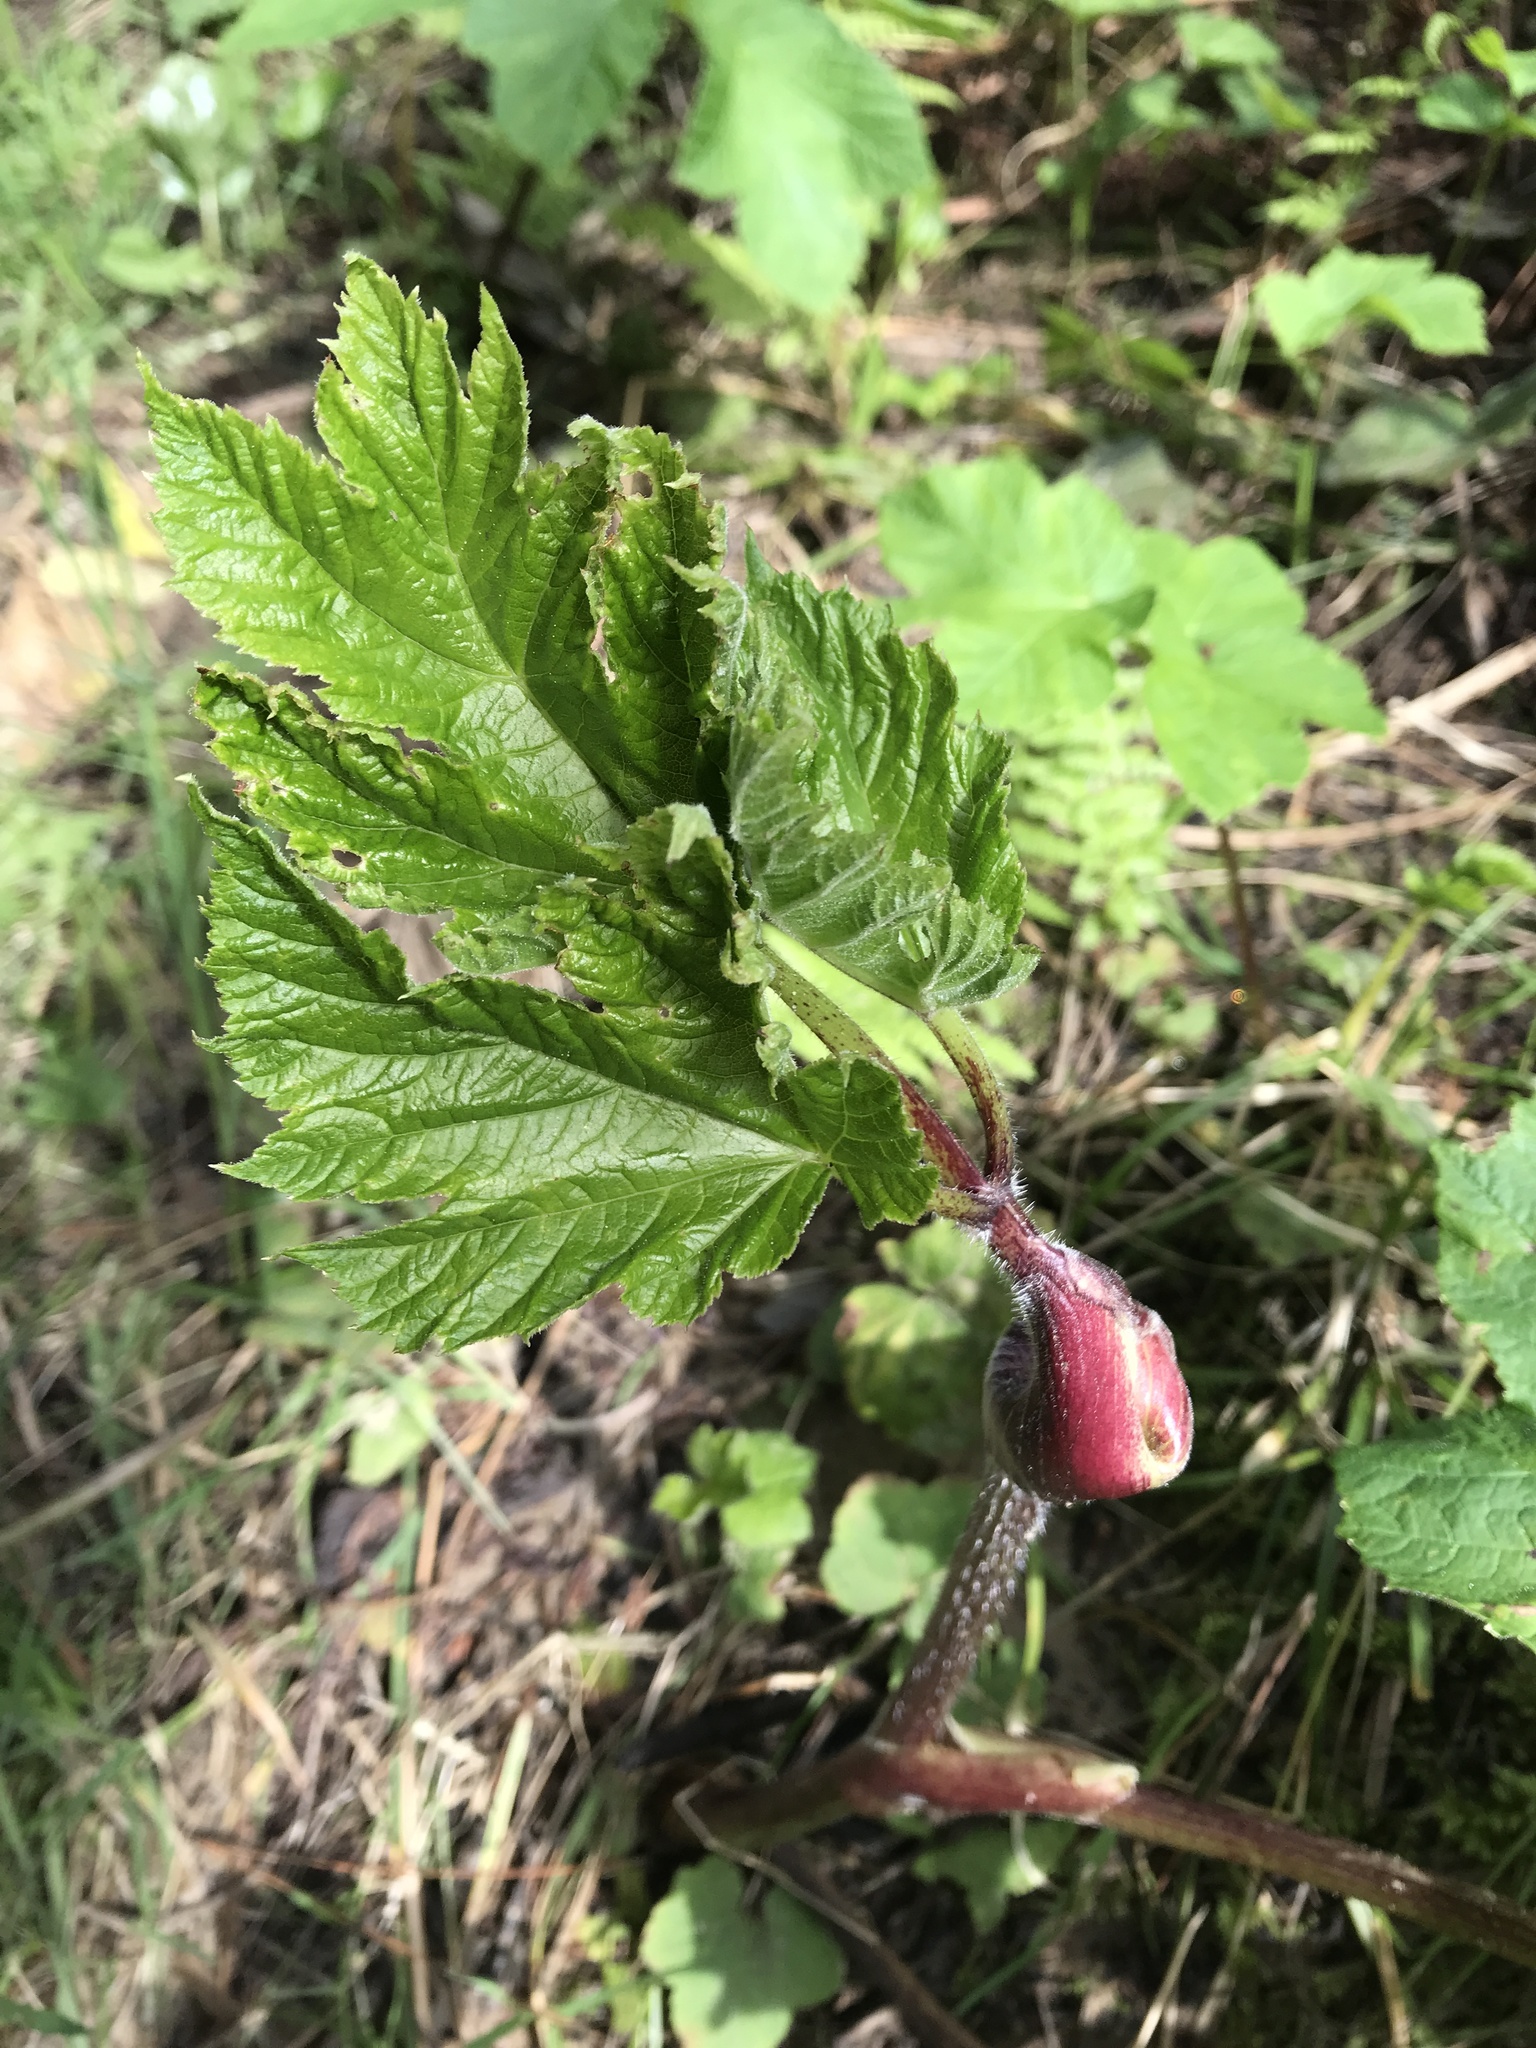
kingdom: Plantae
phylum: Tracheophyta
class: Magnoliopsida
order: Apiales
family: Apiaceae
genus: Heracleum
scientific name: Heracleum maximum
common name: American cow parsnip
